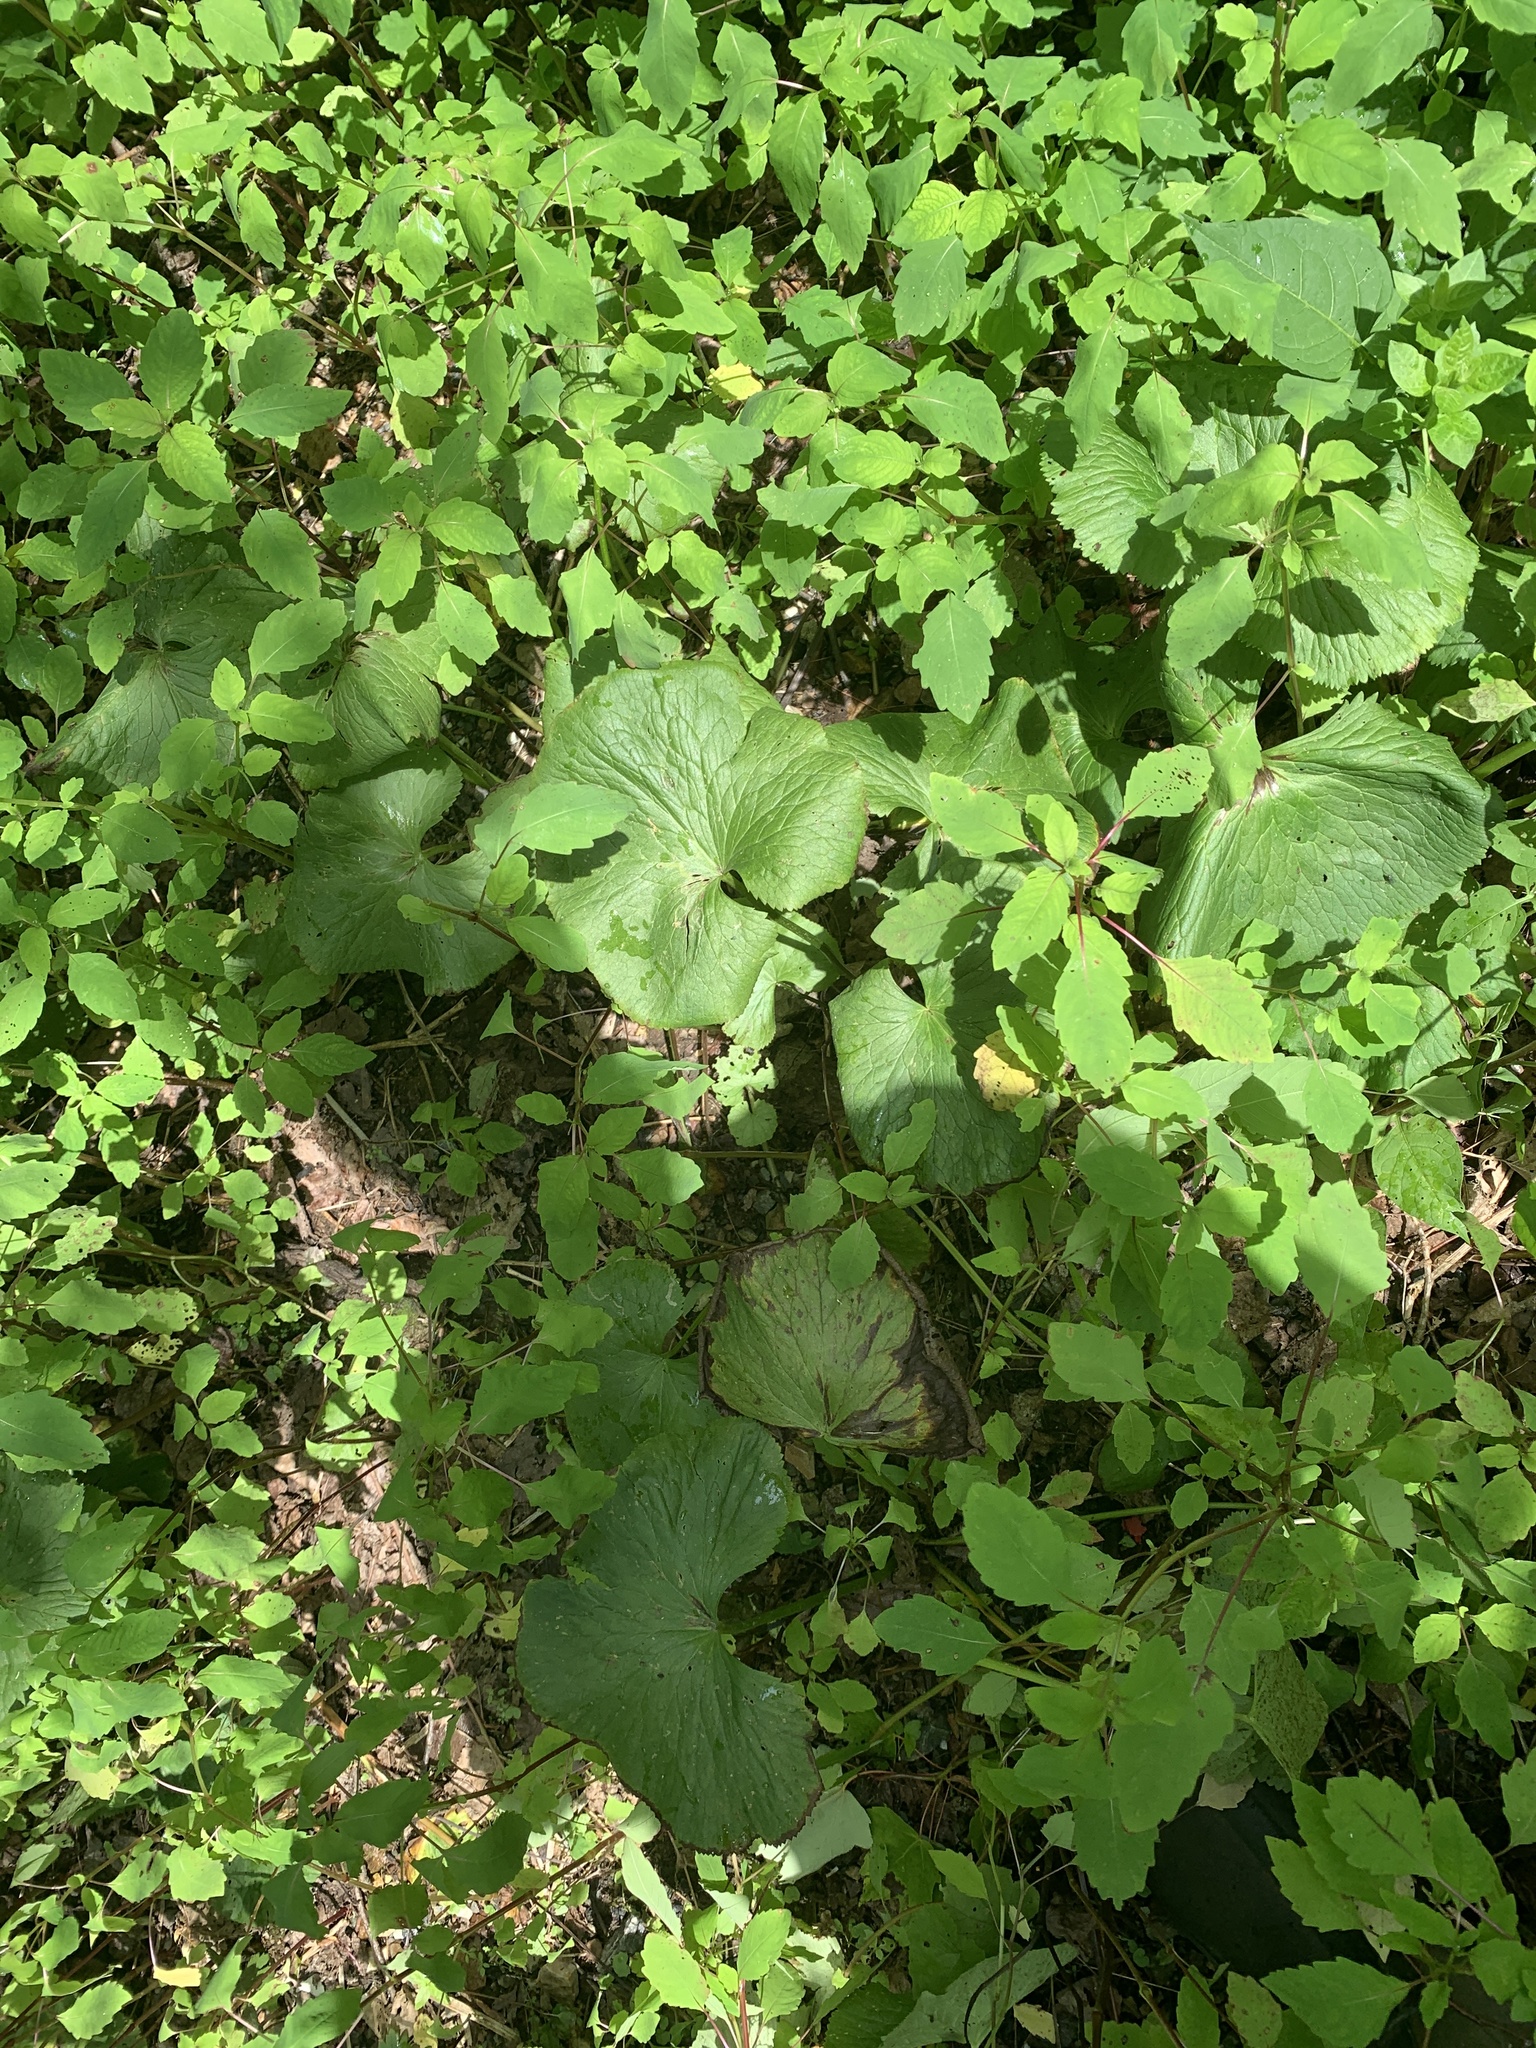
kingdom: Plantae
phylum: Tracheophyta
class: Magnoliopsida
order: Ranunculales
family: Ranunculaceae
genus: Caltha
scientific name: Caltha palustris
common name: Marsh marigold
